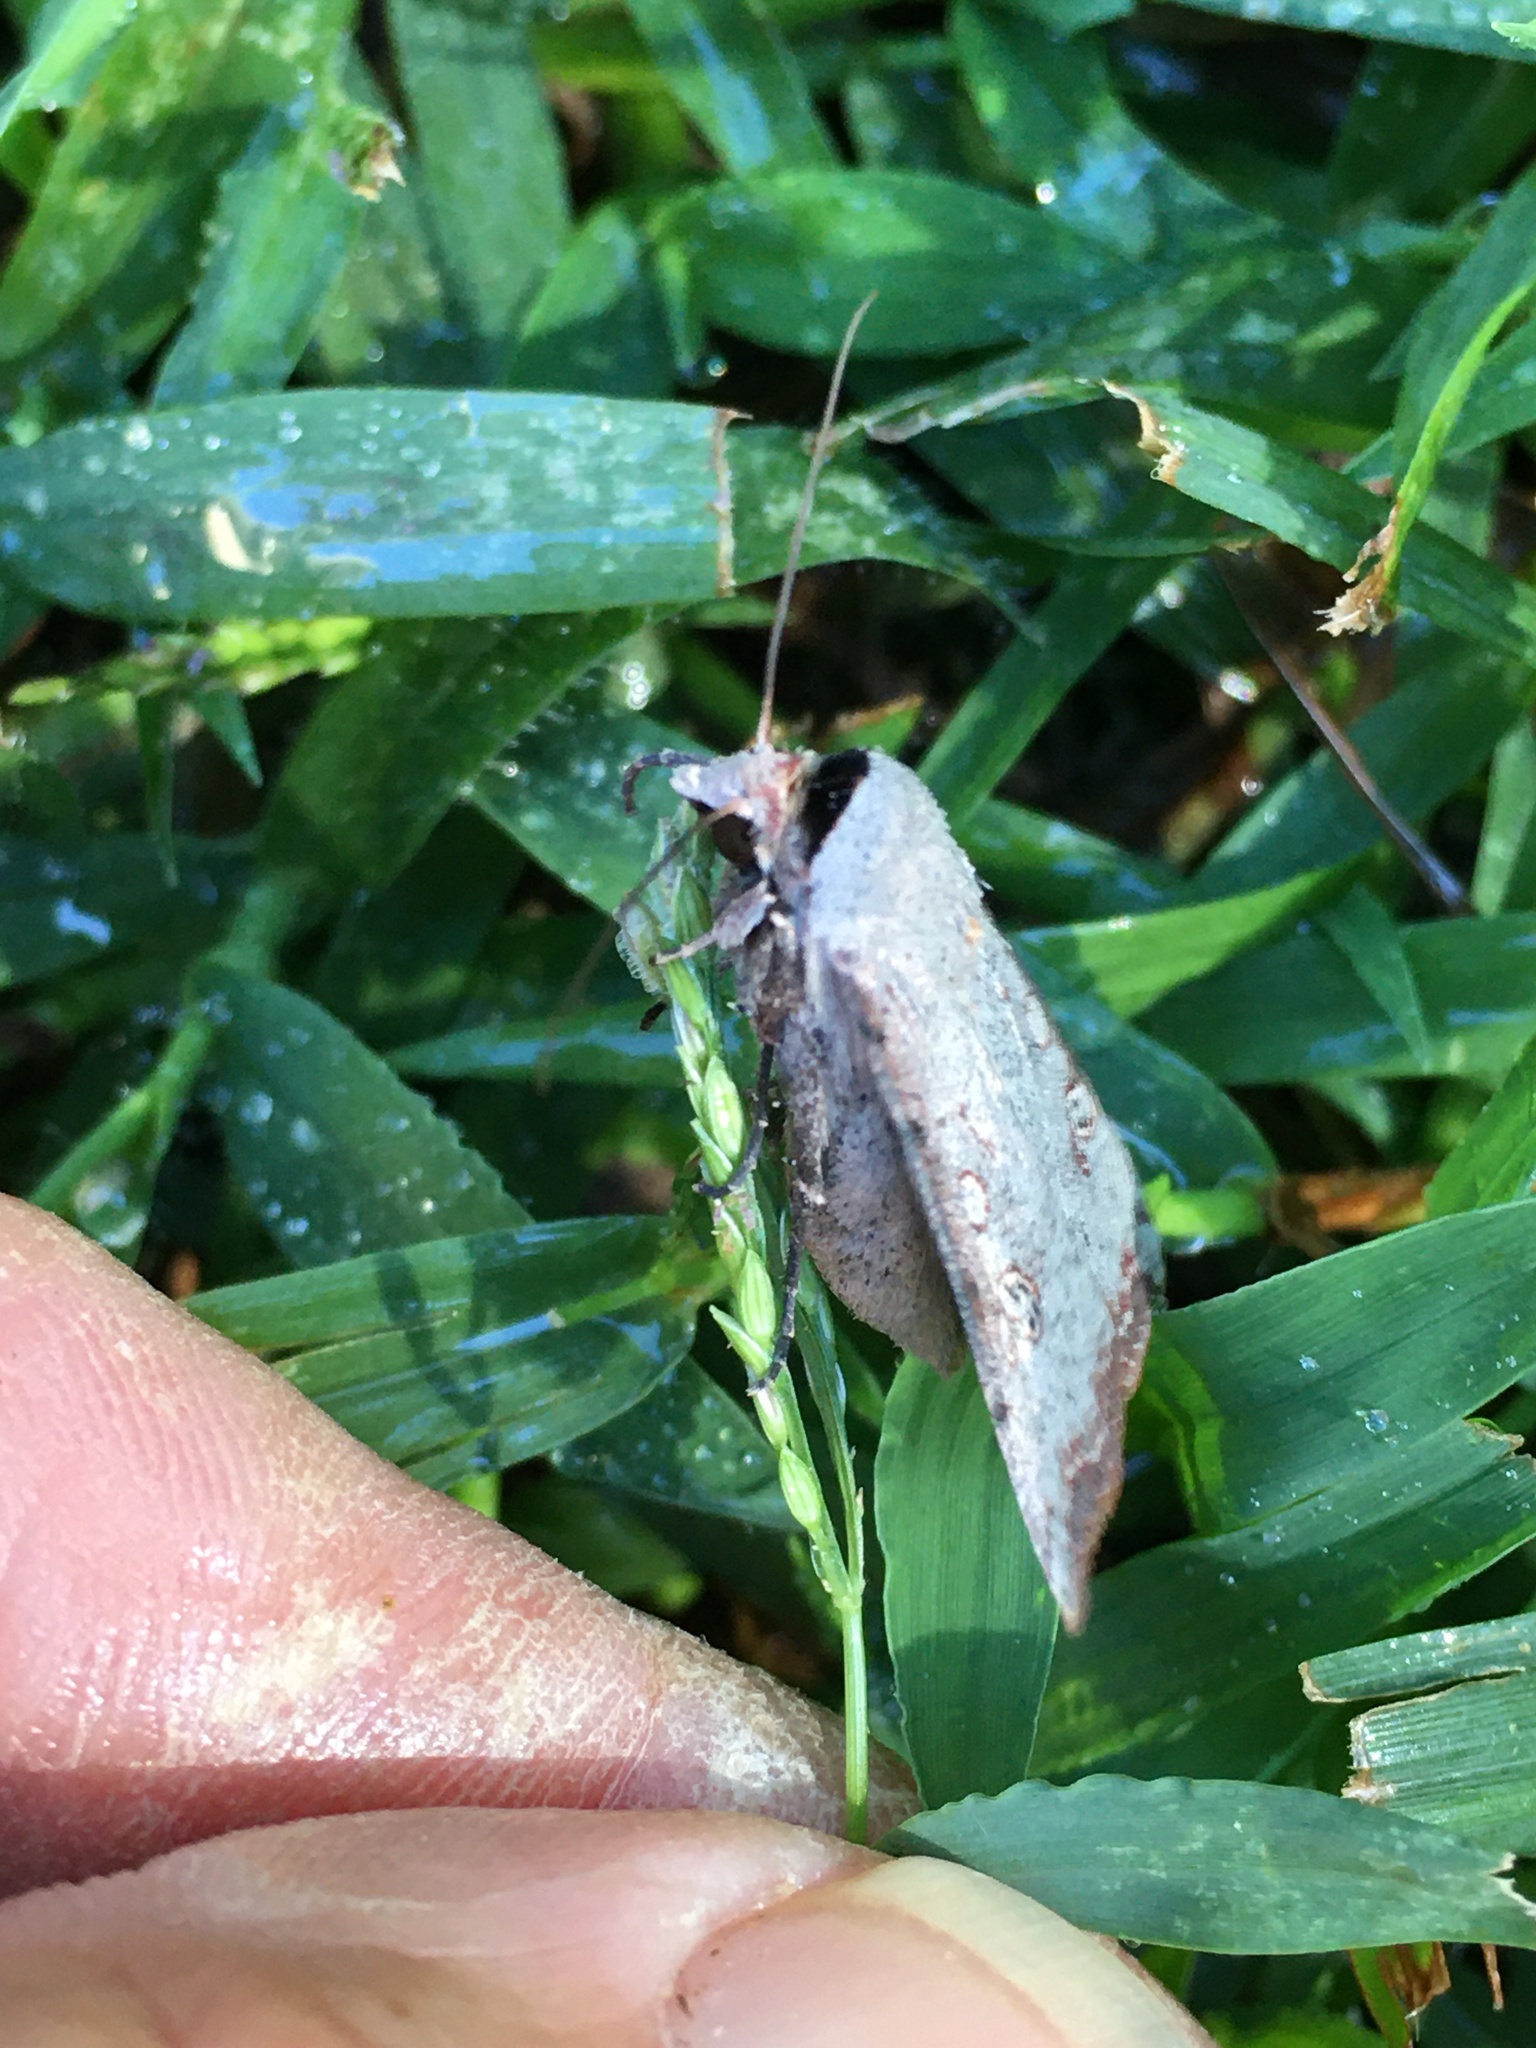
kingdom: Animalia
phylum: Arthropoda
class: Insecta
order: Lepidoptera
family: Noctuidae
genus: Anicla
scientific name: Anicla infecta
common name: Green cutworm
